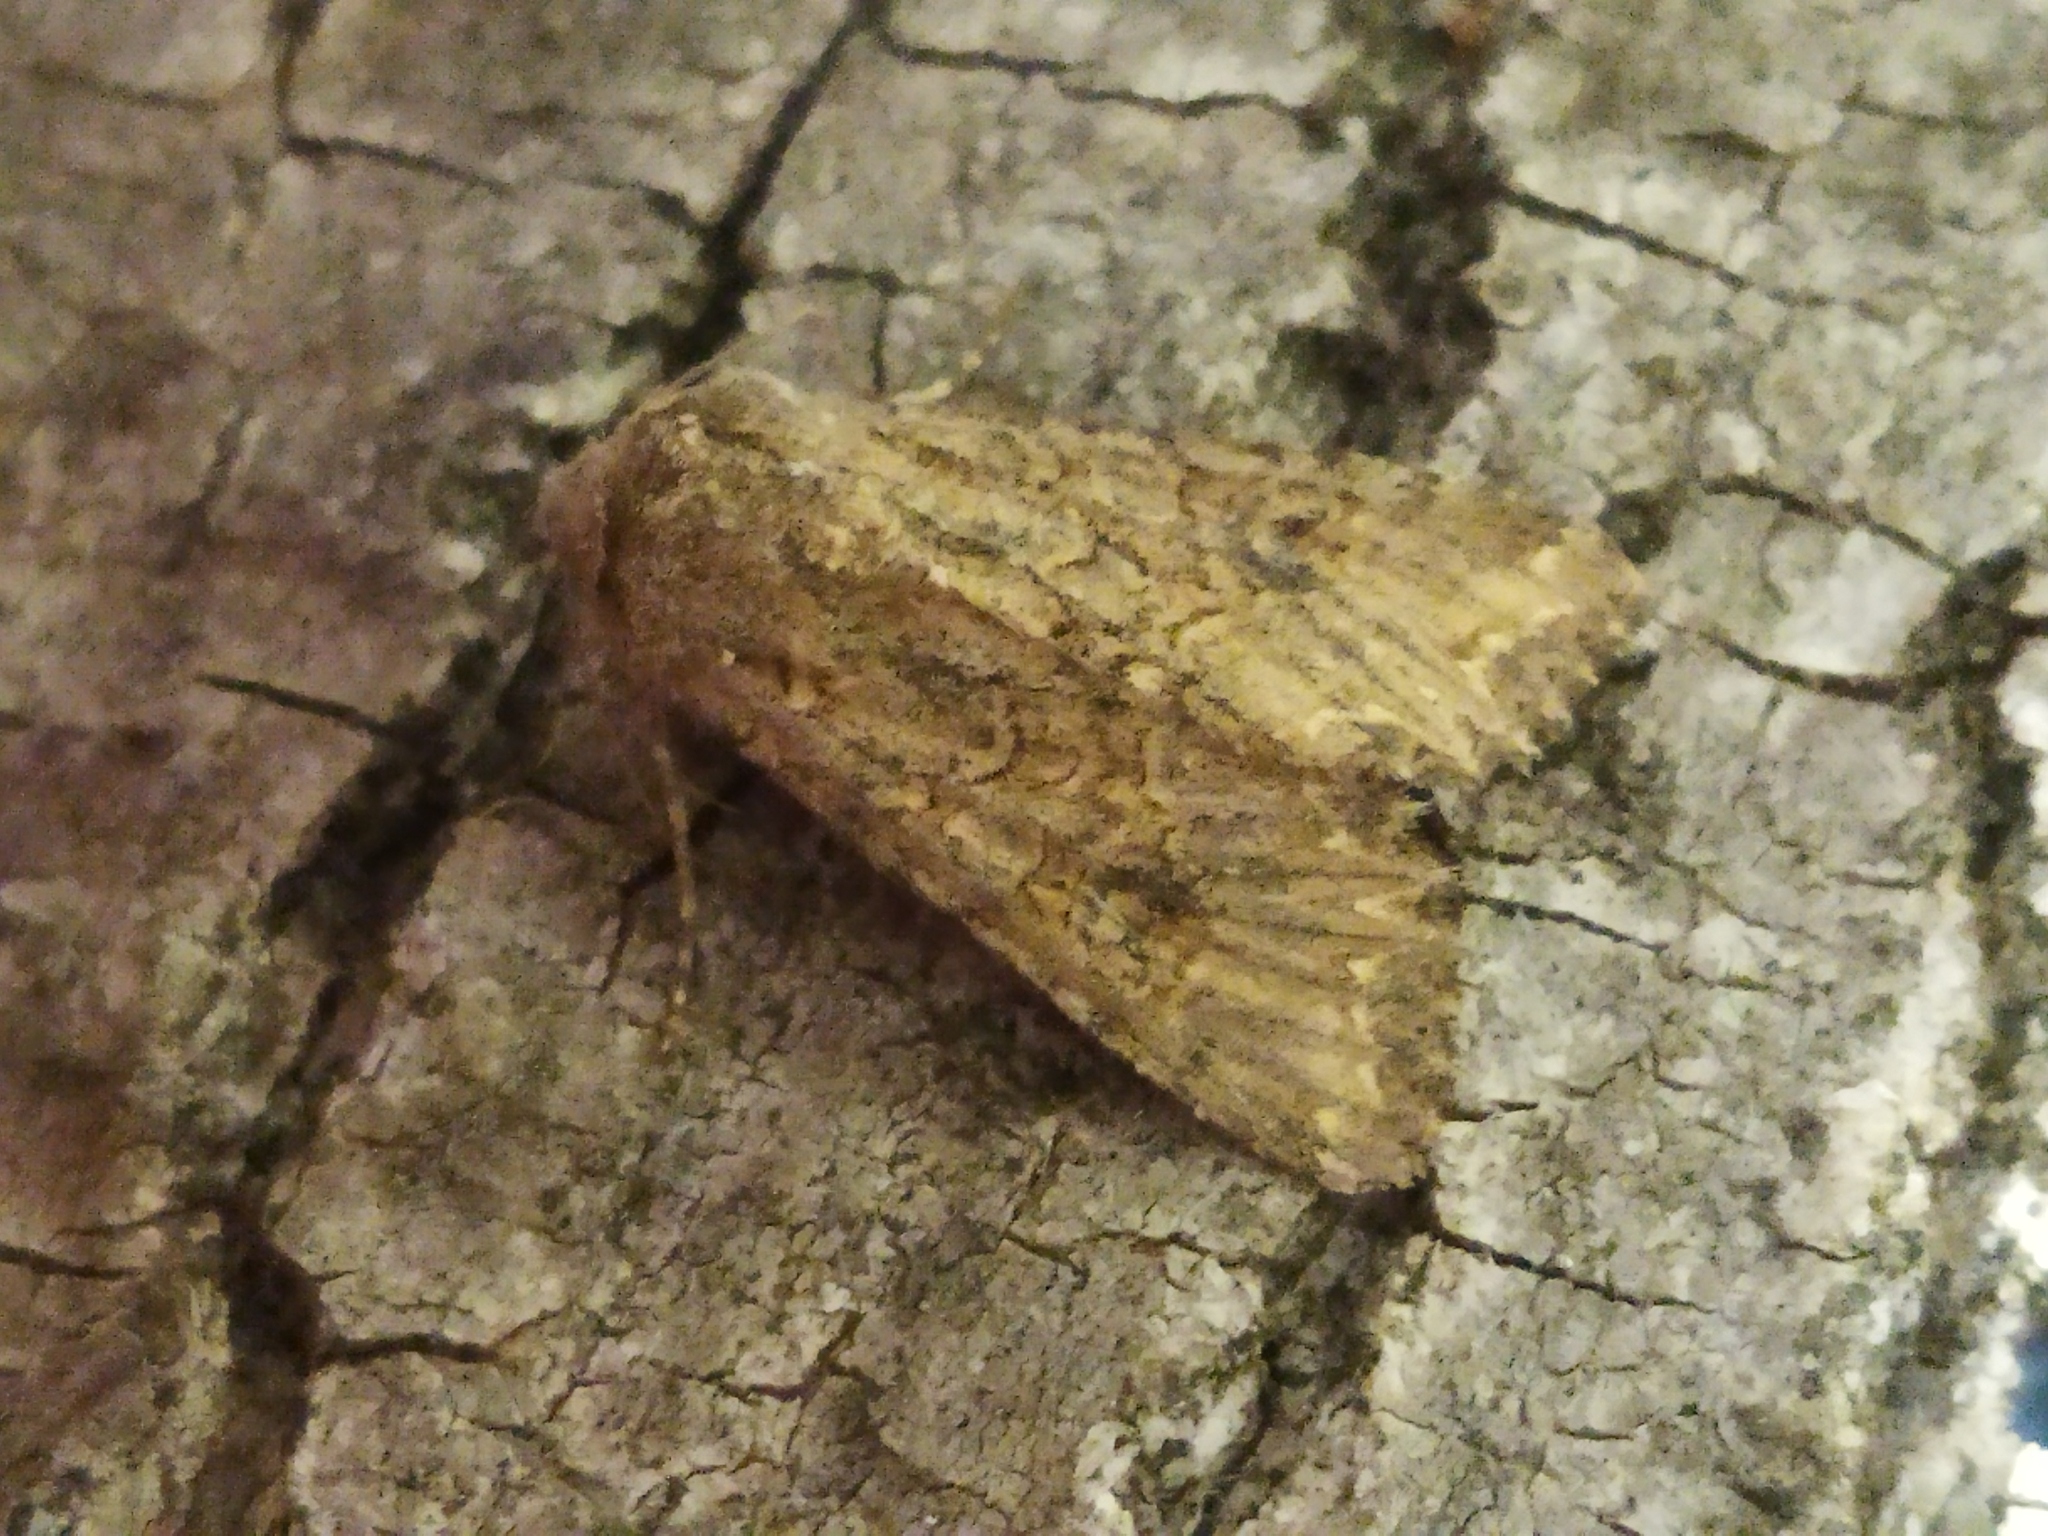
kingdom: Animalia
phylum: Arthropoda
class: Insecta
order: Lepidoptera
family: Noctuidae
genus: Anarta
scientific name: Anarta trifolii
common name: Clover cutworm moth
